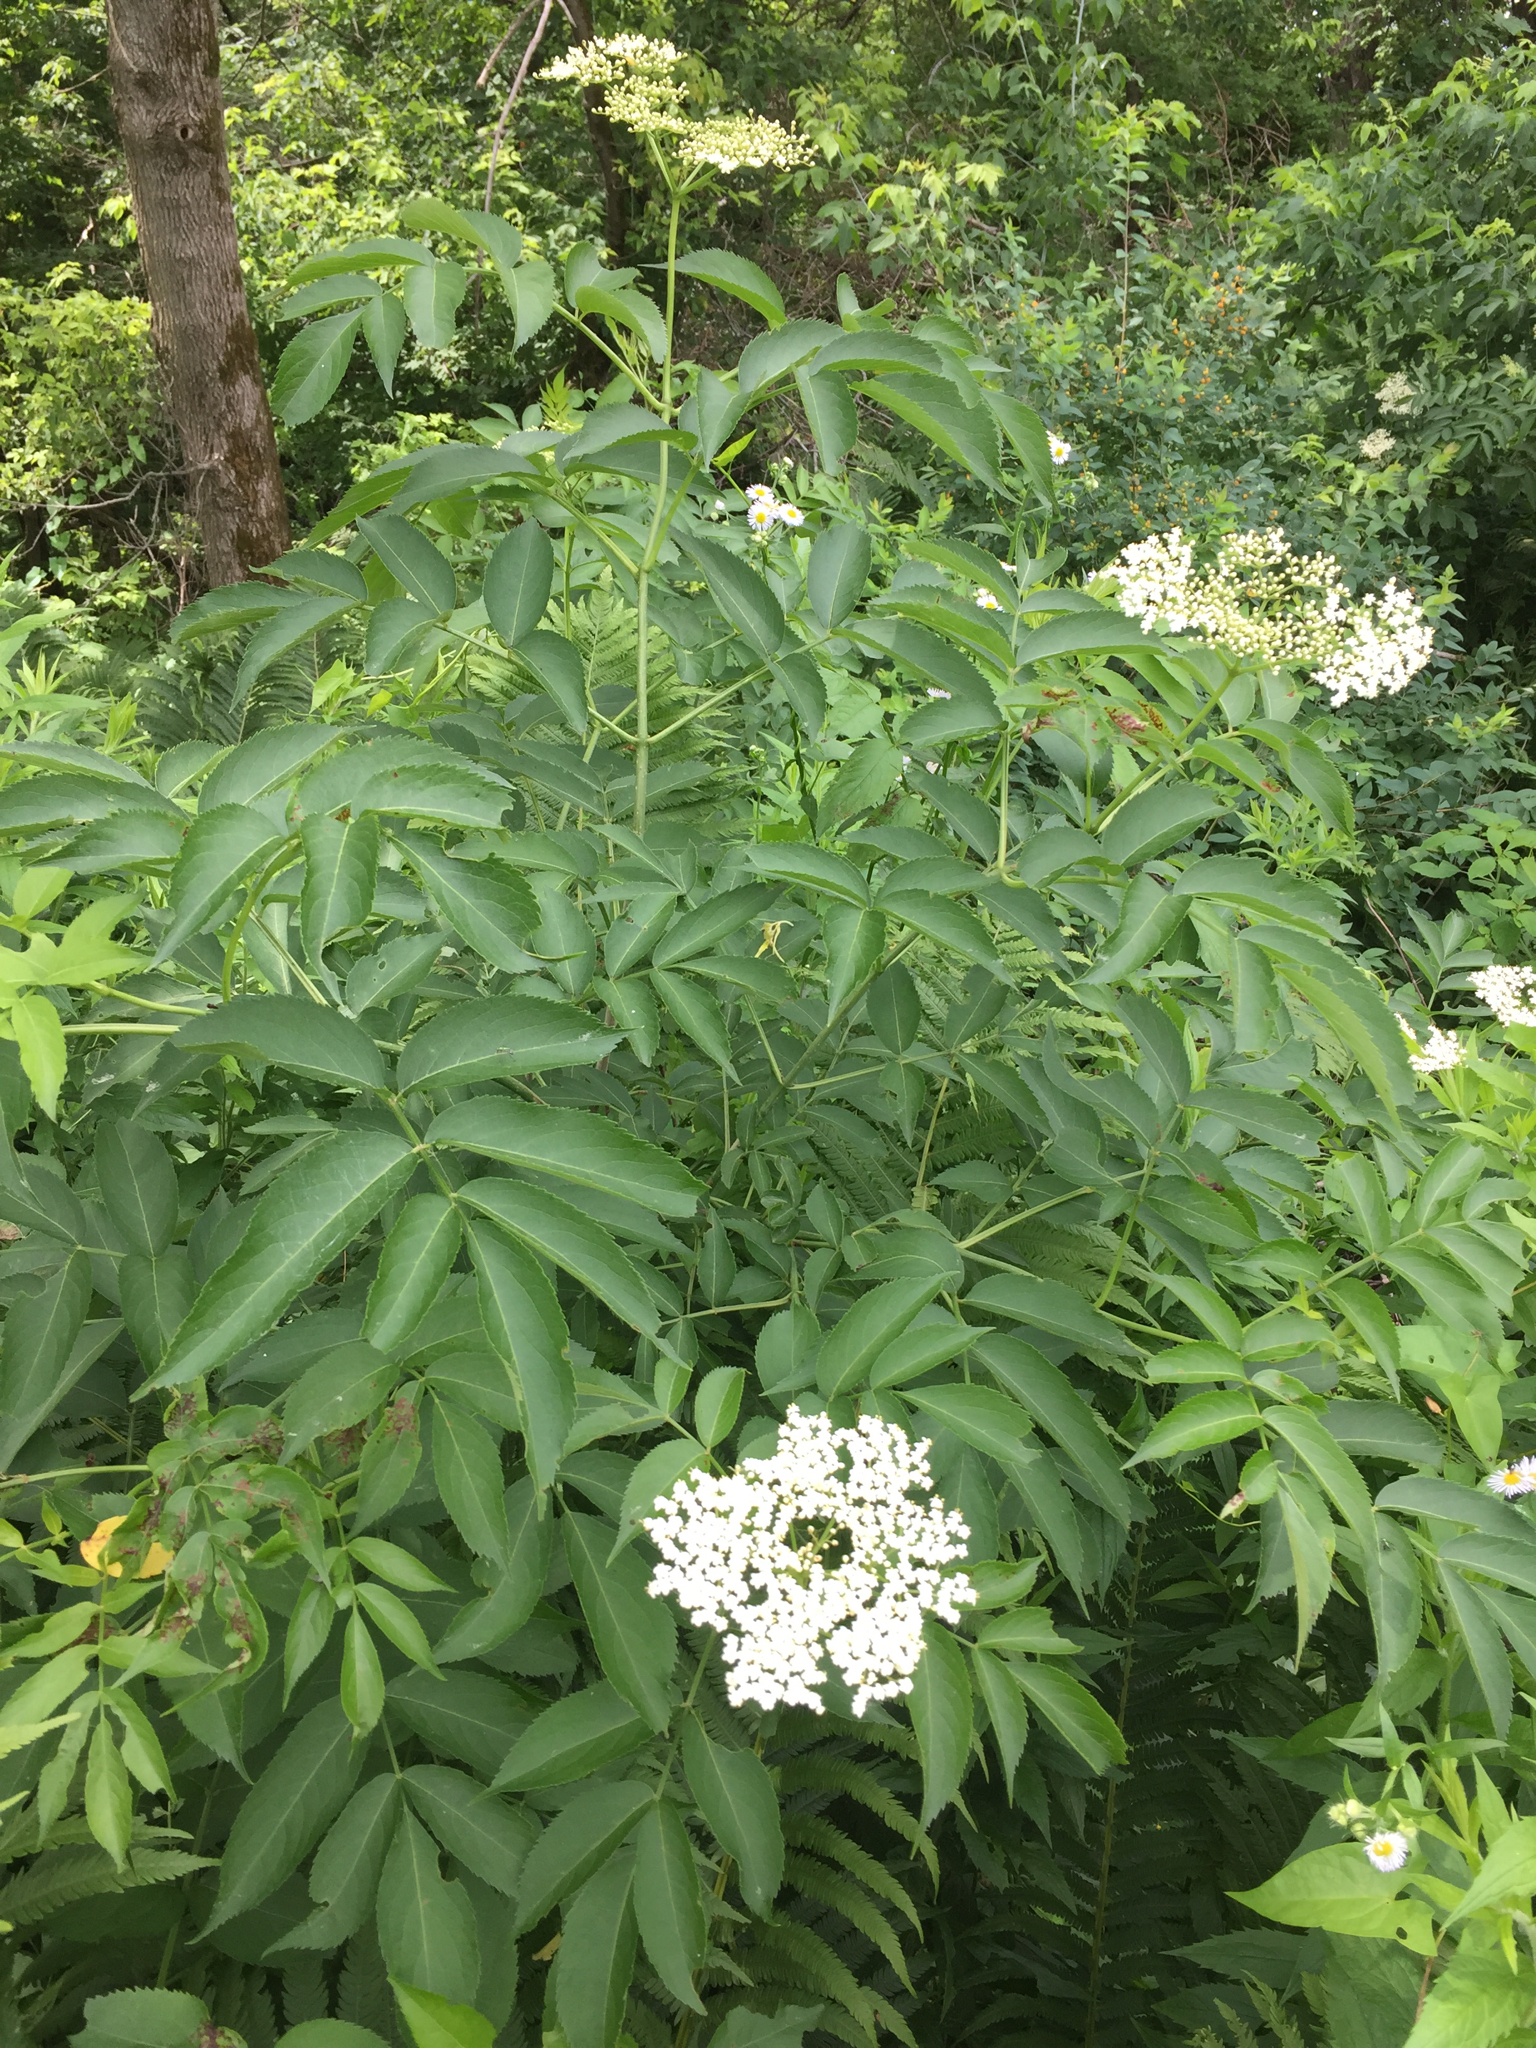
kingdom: Plantae
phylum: Tracheophyta
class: Magnoliopsida
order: Dipsacales
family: Viburnaceae
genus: Sambucus
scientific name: Sambucus canadensis
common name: American elder
